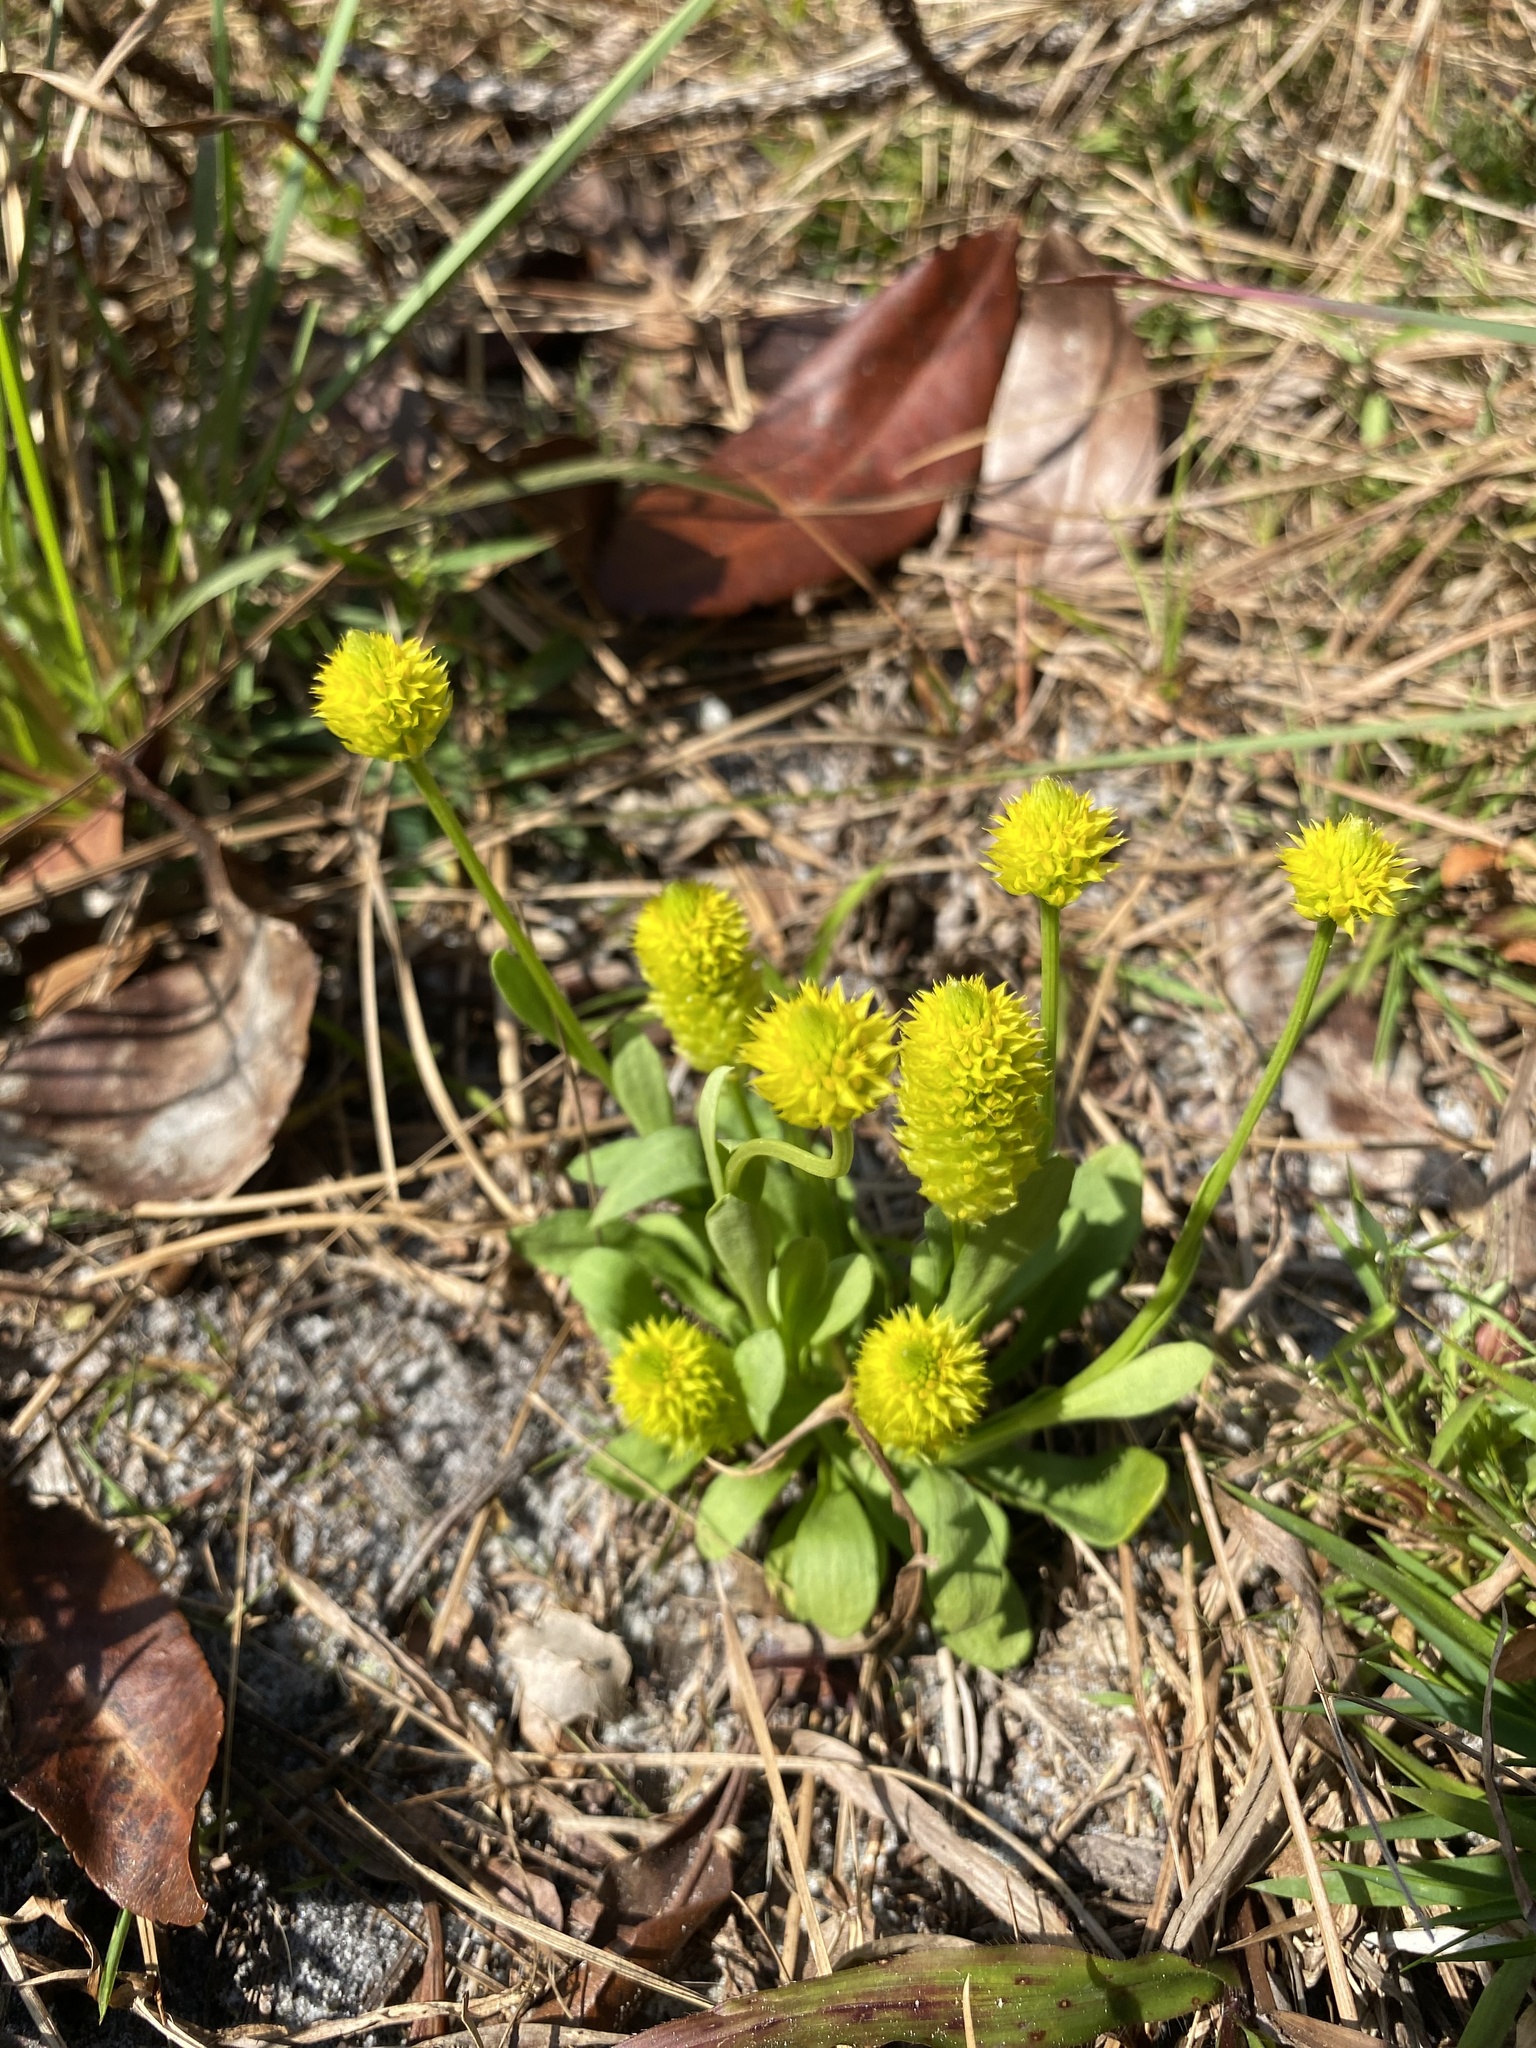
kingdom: Plantae
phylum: Tracheophyta
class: Magnoliopsida
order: Fabales
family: Polygalaceae
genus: Polygala
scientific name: Polygala nana
